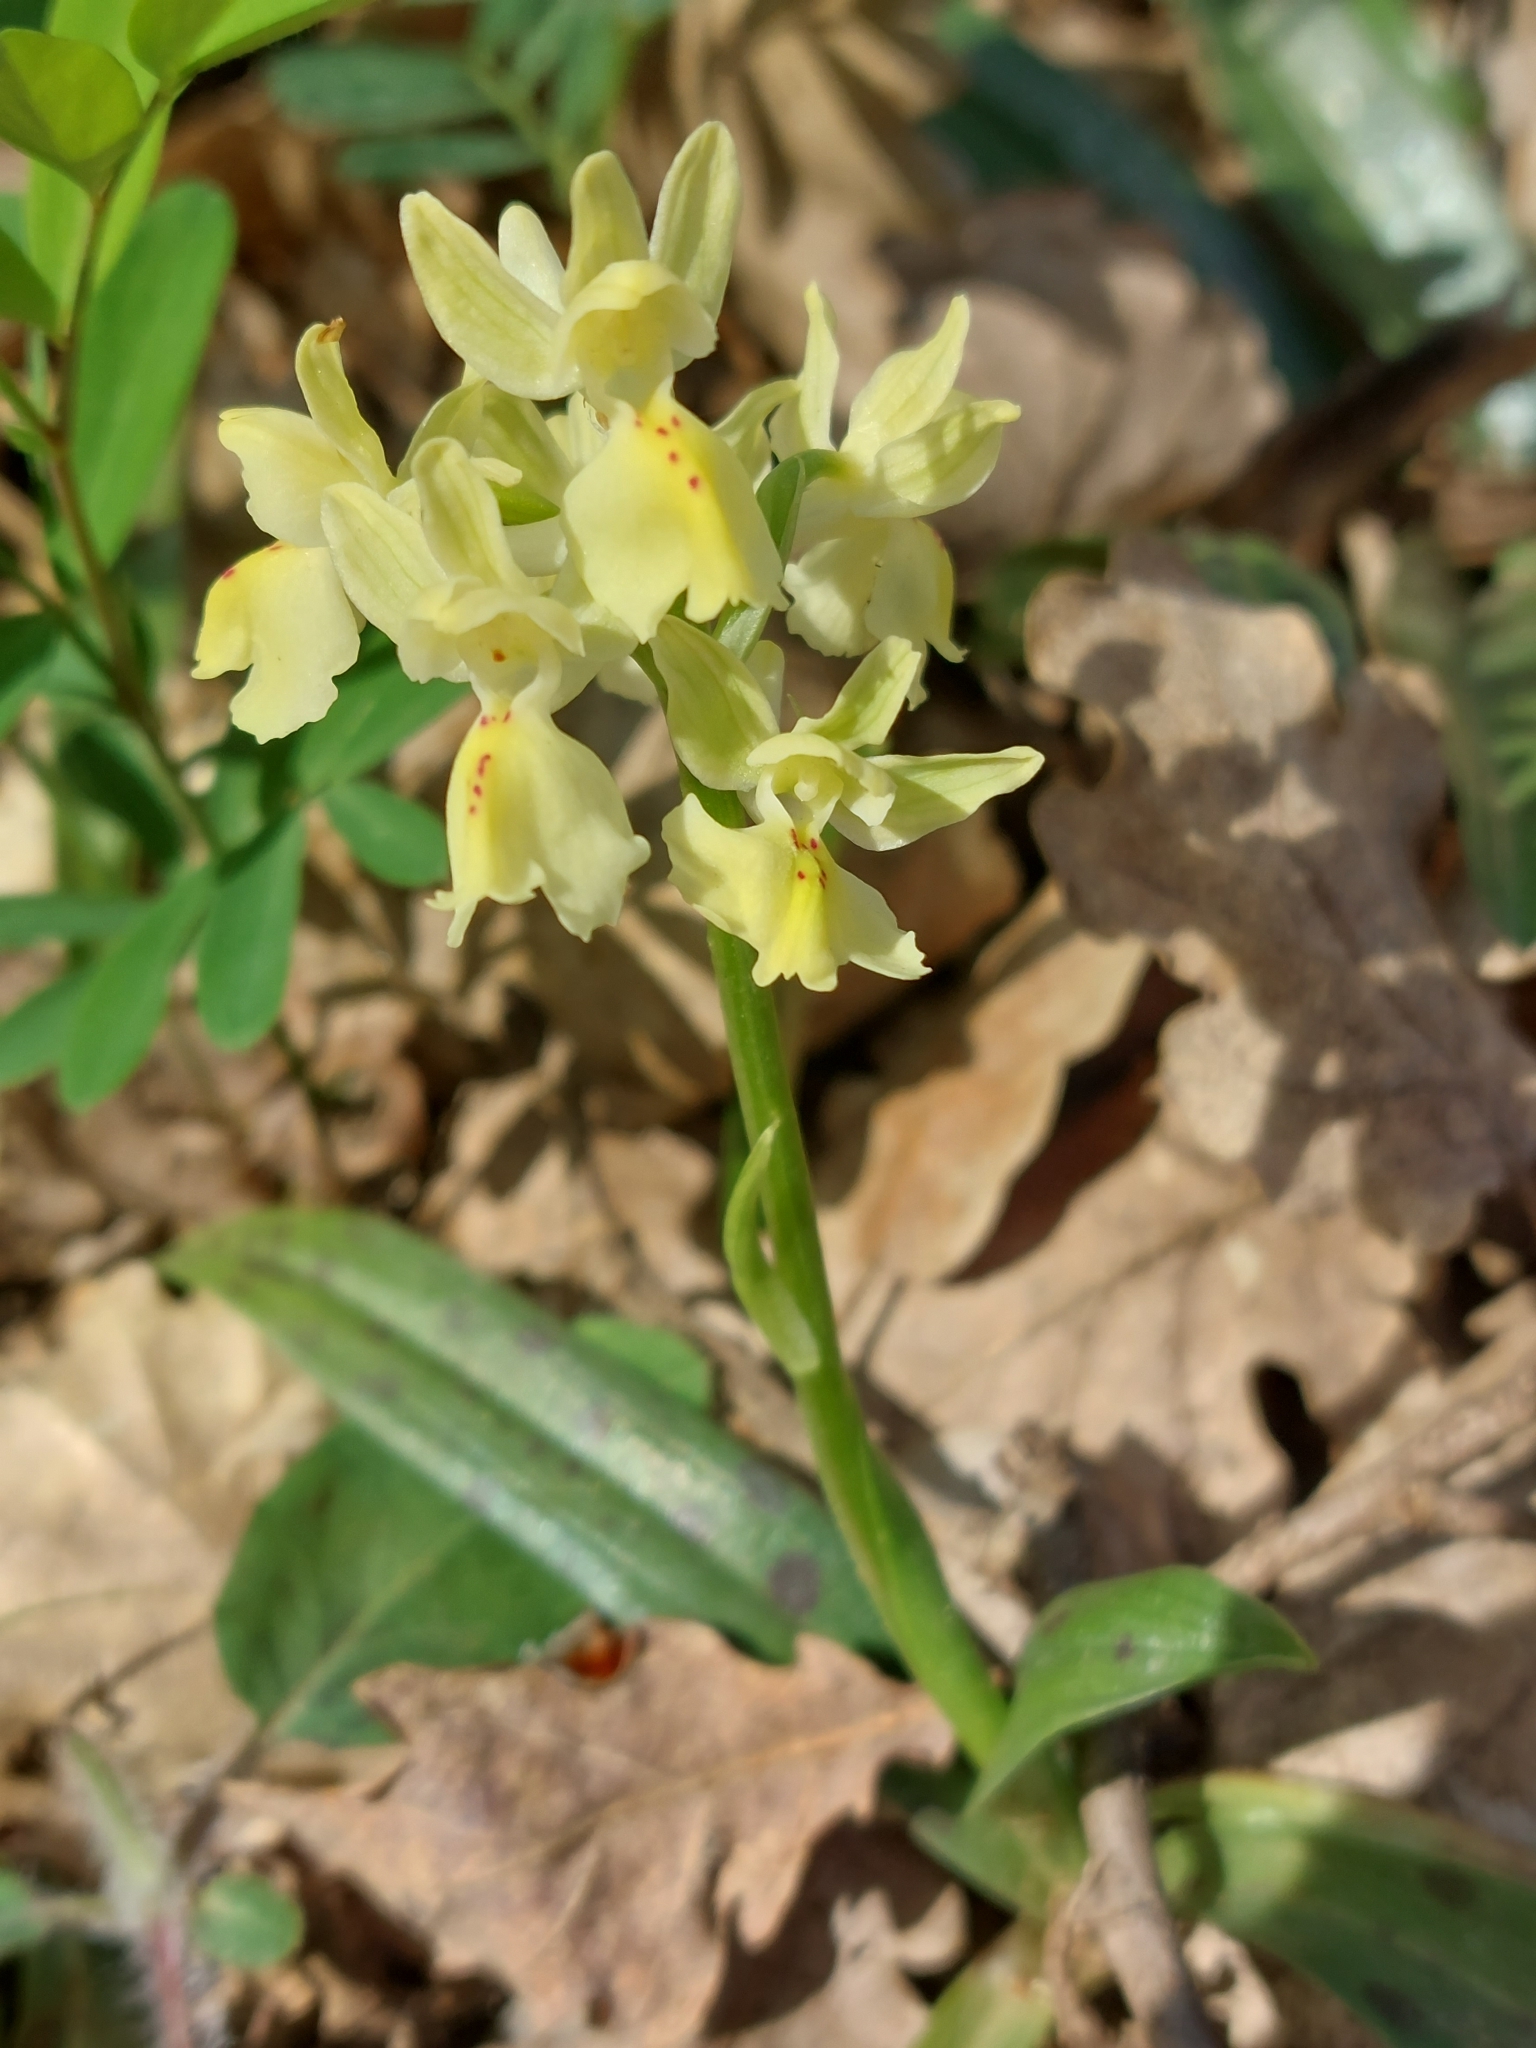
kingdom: Plantae
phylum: Tracheophyta
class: Liliopsida
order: Asparagales
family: Orchidaceae
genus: Orchis
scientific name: Orchis provincialis
